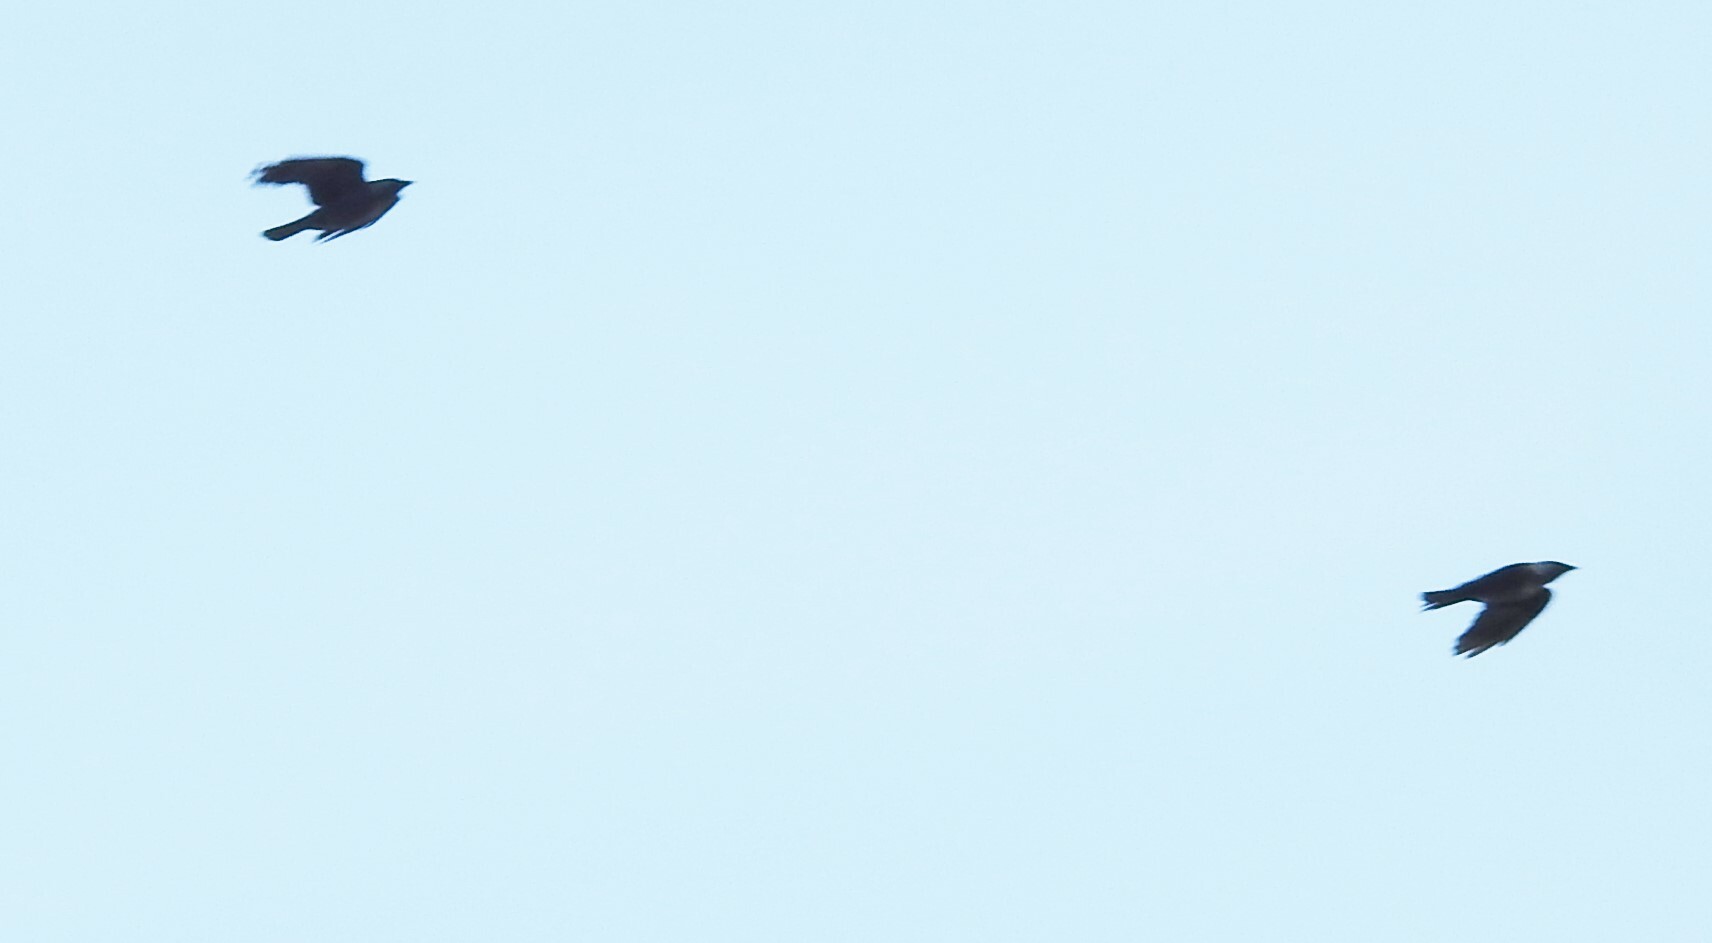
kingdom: Animalia
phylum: Chordata
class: Aves
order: Passeriformes
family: Corvidae
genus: Coloeus
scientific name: Coloeus monedula
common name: Western jackdaw
